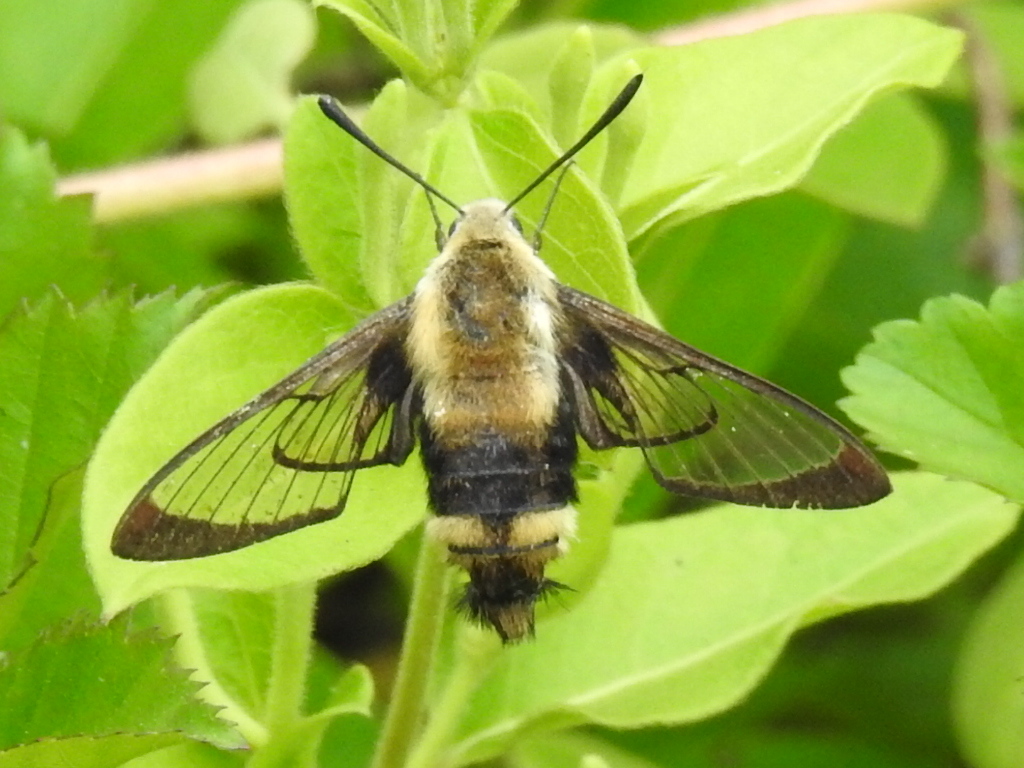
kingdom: Animalia
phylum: Arthropoda
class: Insecta
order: Lepidoptera
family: Sphingidae
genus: Hemaris
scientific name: Hemaris diffinis
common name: Bumblebee moth
